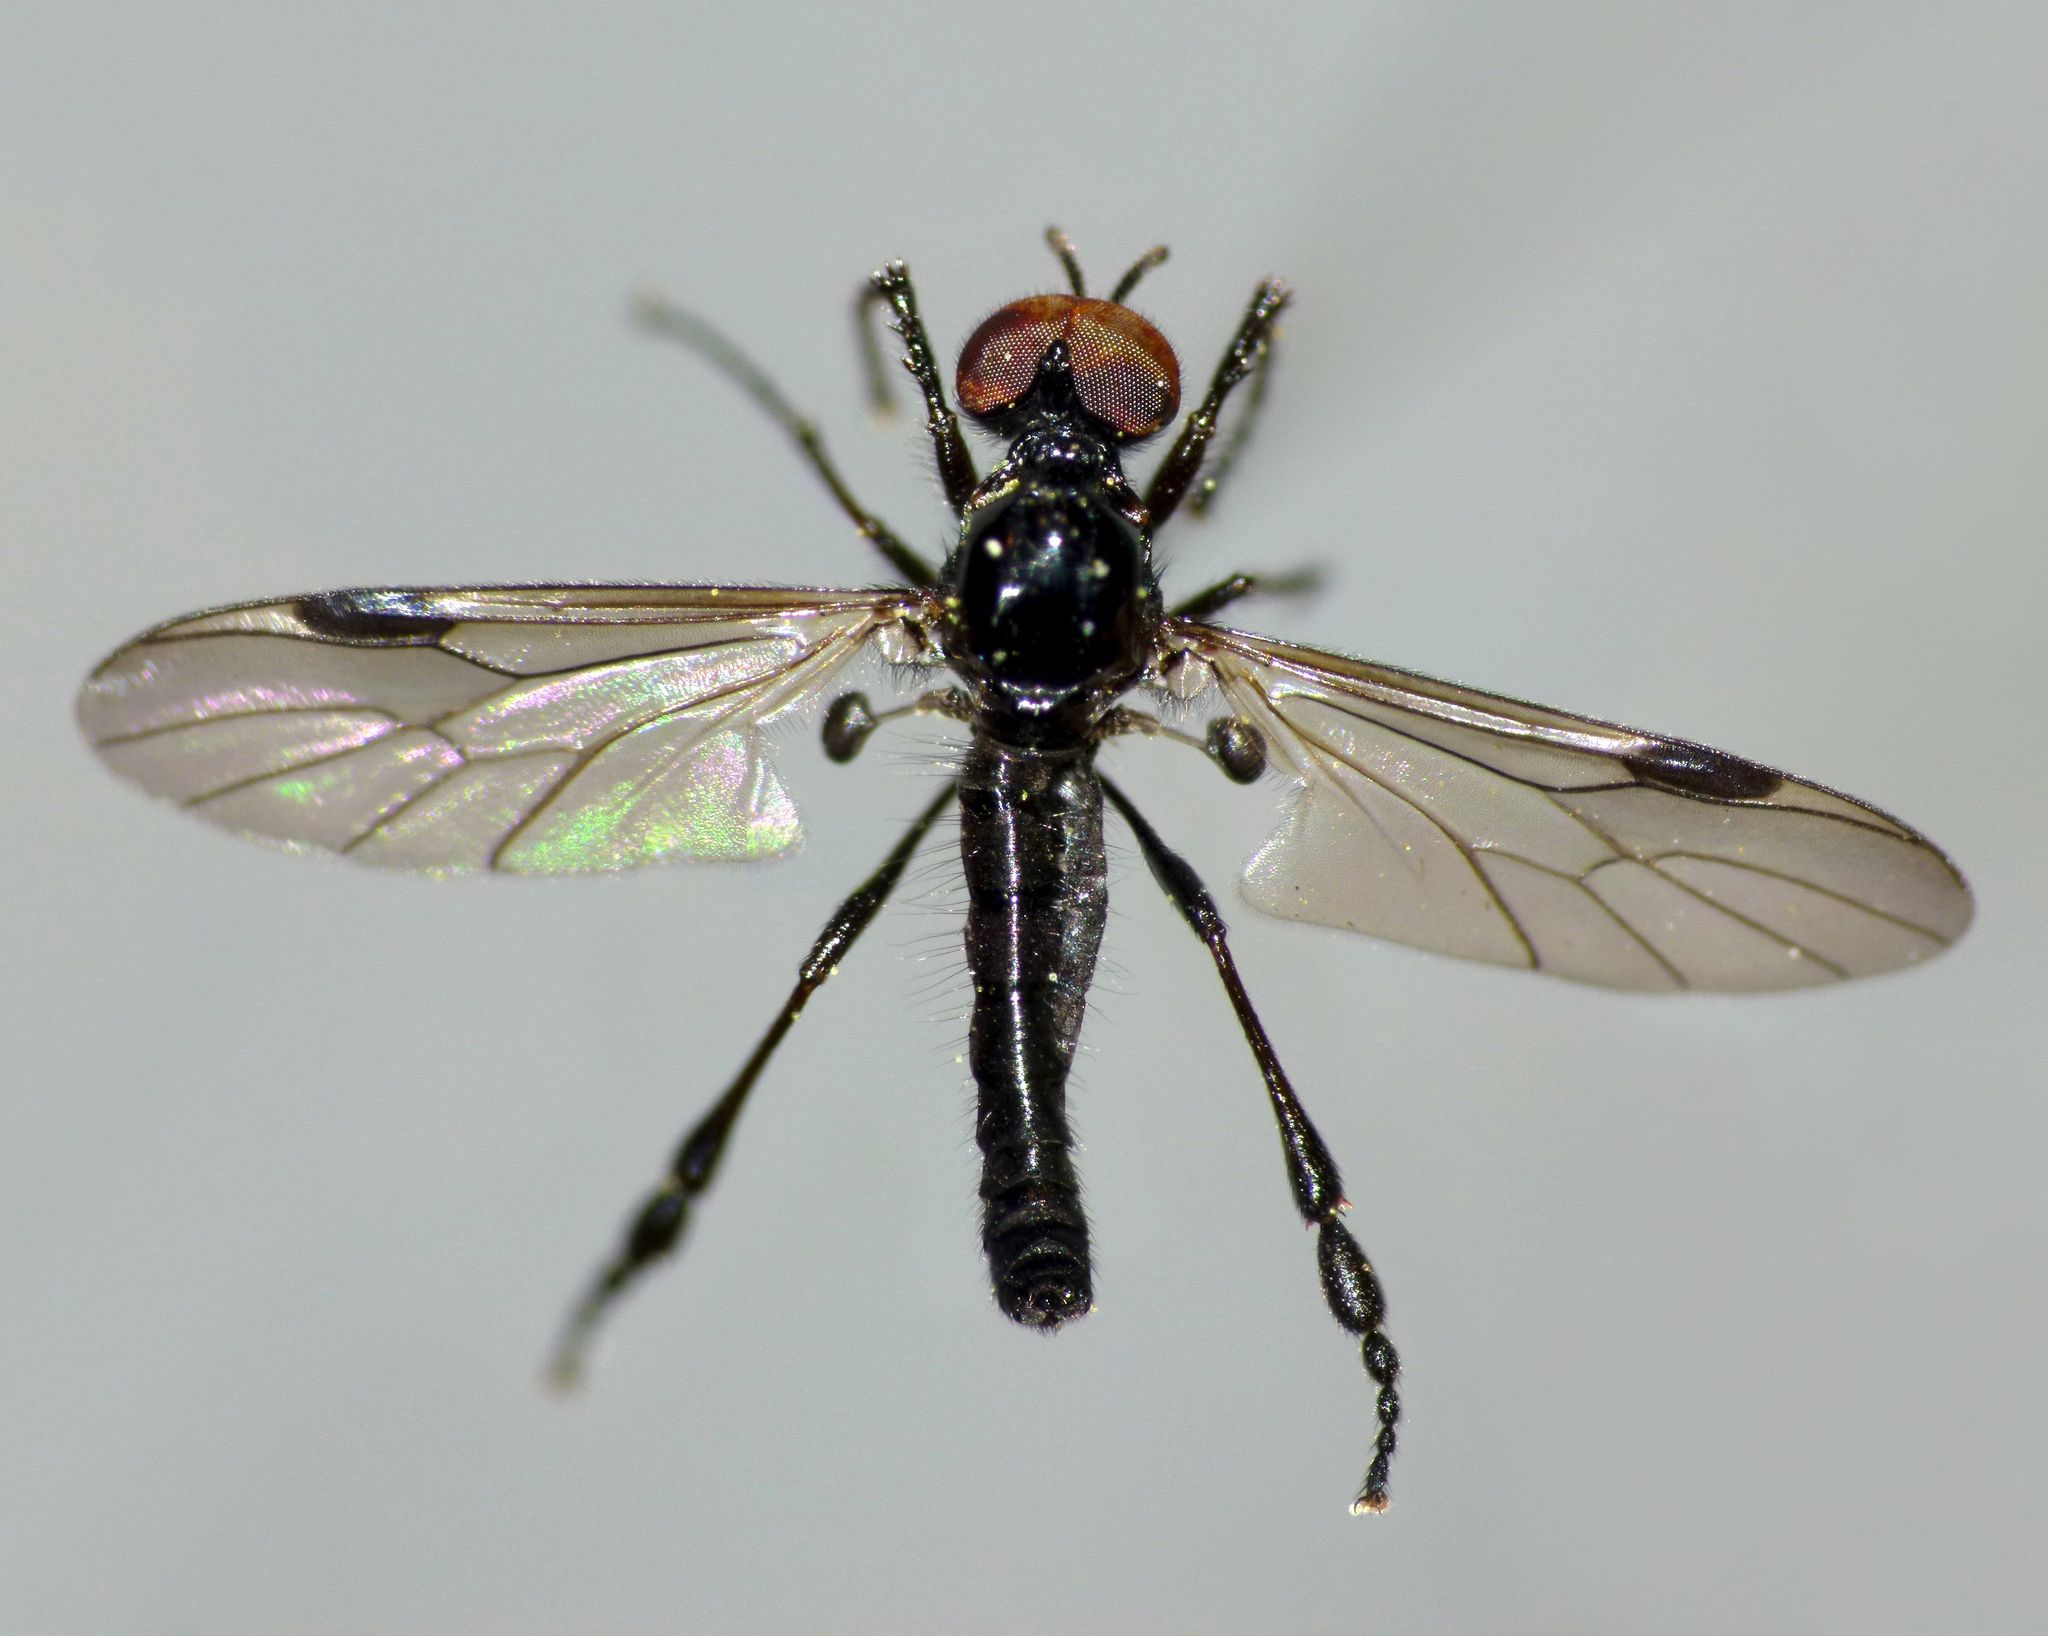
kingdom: Animalia
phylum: Arthropoda
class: Insecta
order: Diptera
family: Bibionidae
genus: Dilophus
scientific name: Dilophus segnis
